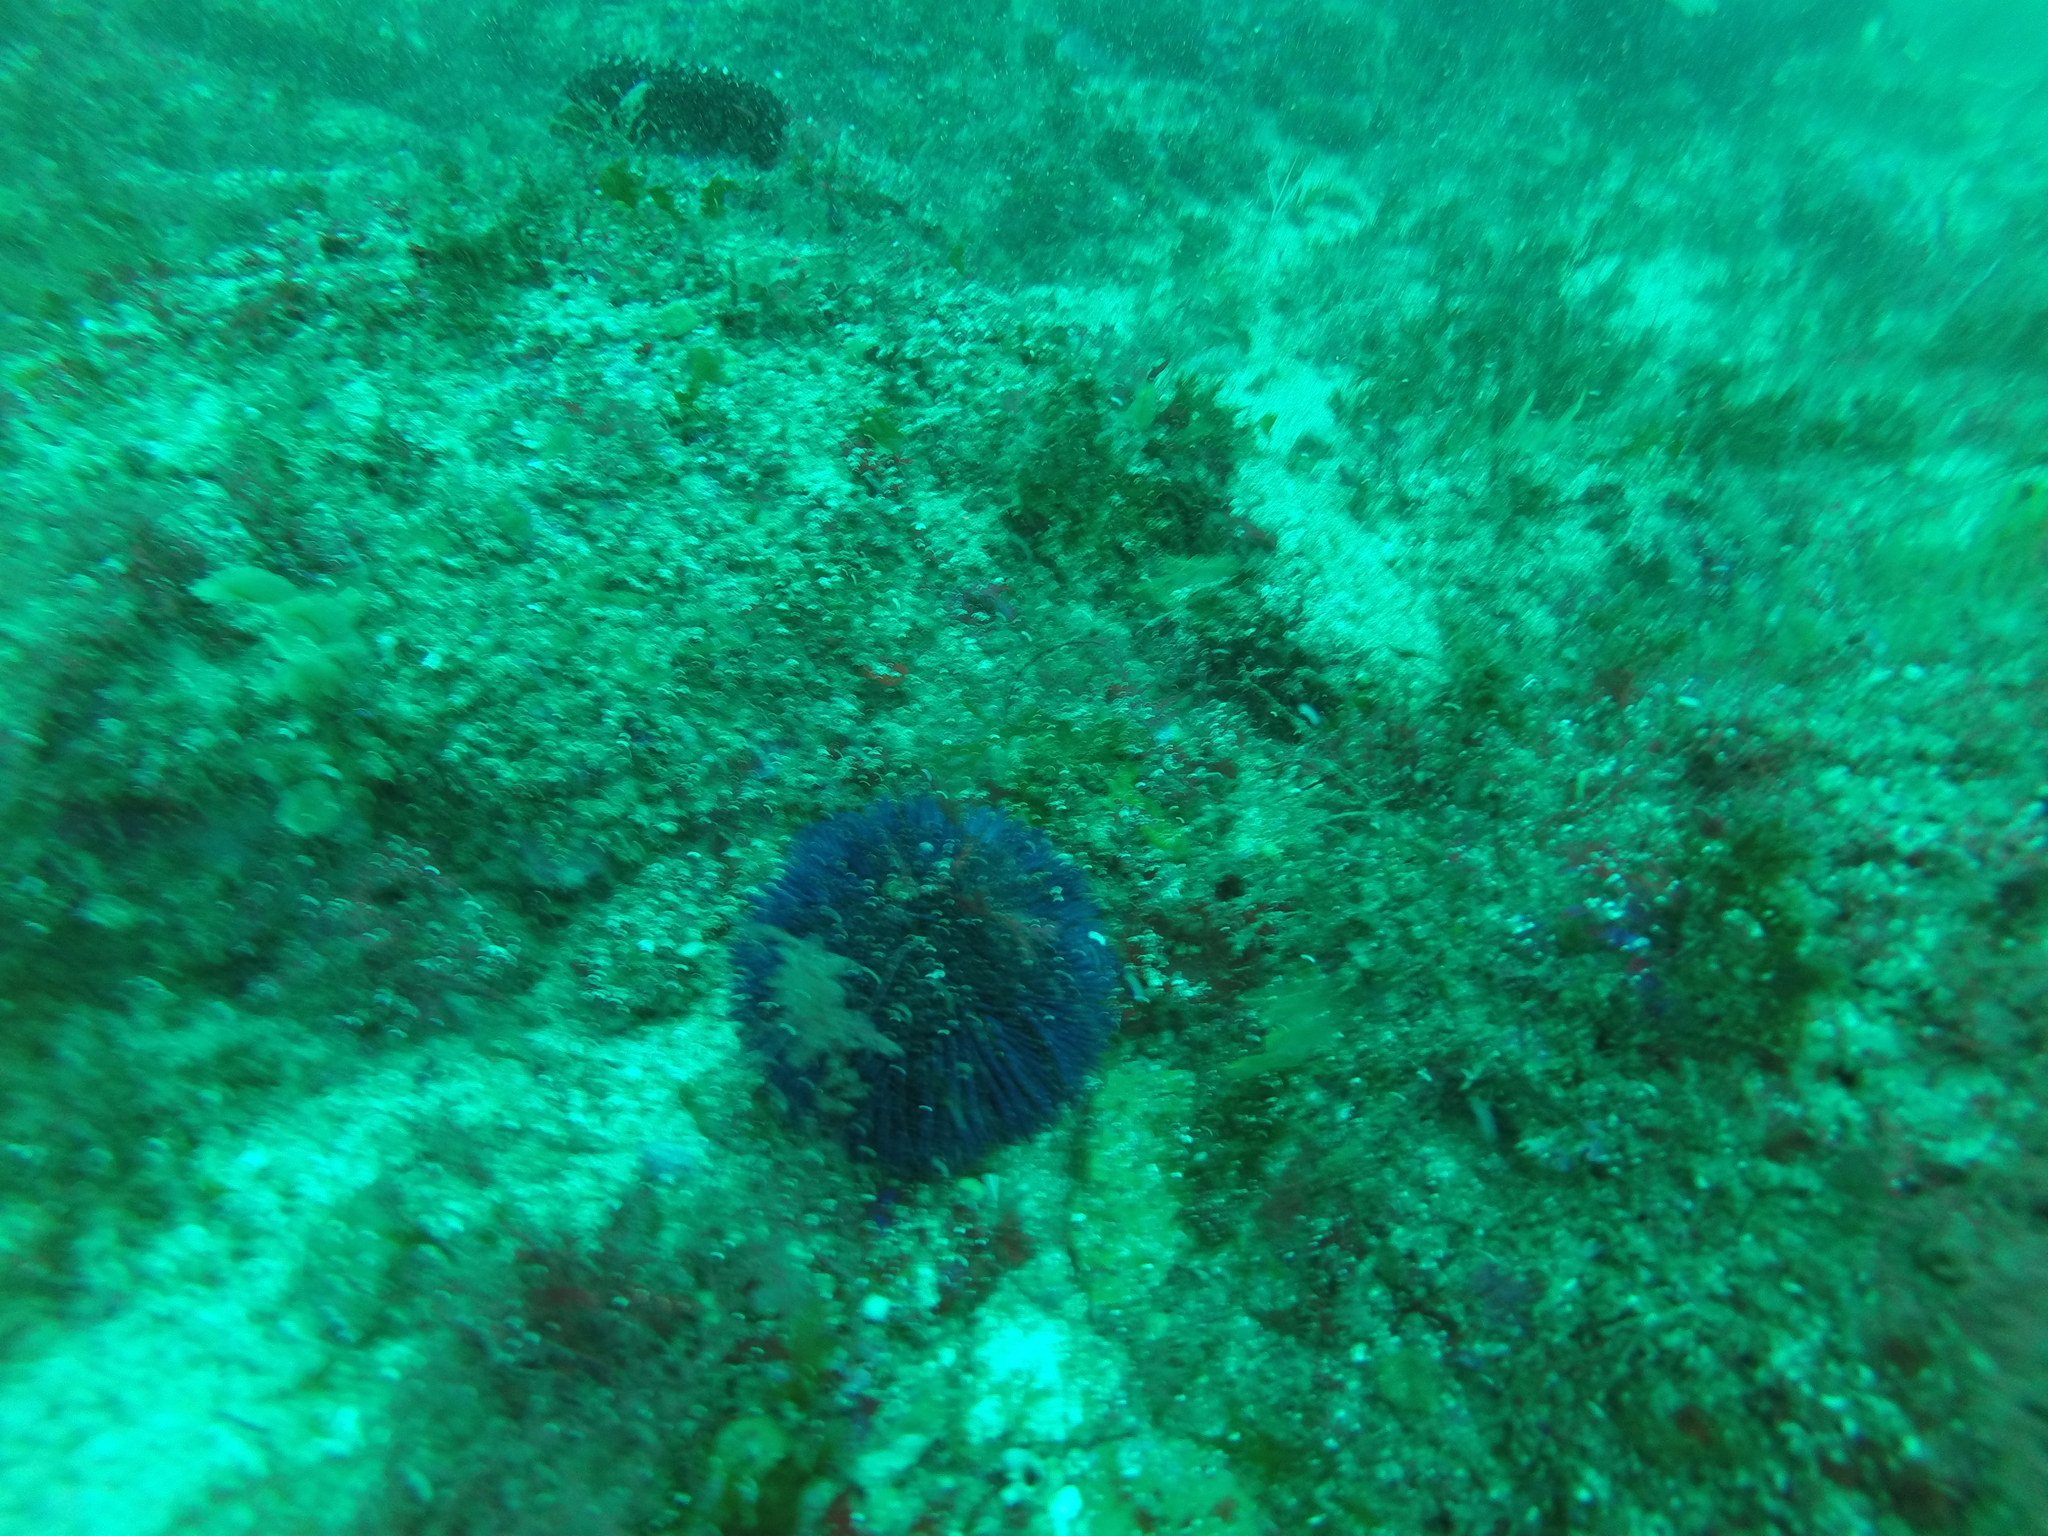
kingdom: Animalia
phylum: Echinodermata
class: Echinoidea
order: Camarodonta
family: Toxopneustidae
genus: Sphaerechinus
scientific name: Sphaerechinus granularis
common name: Violet sea urchin
